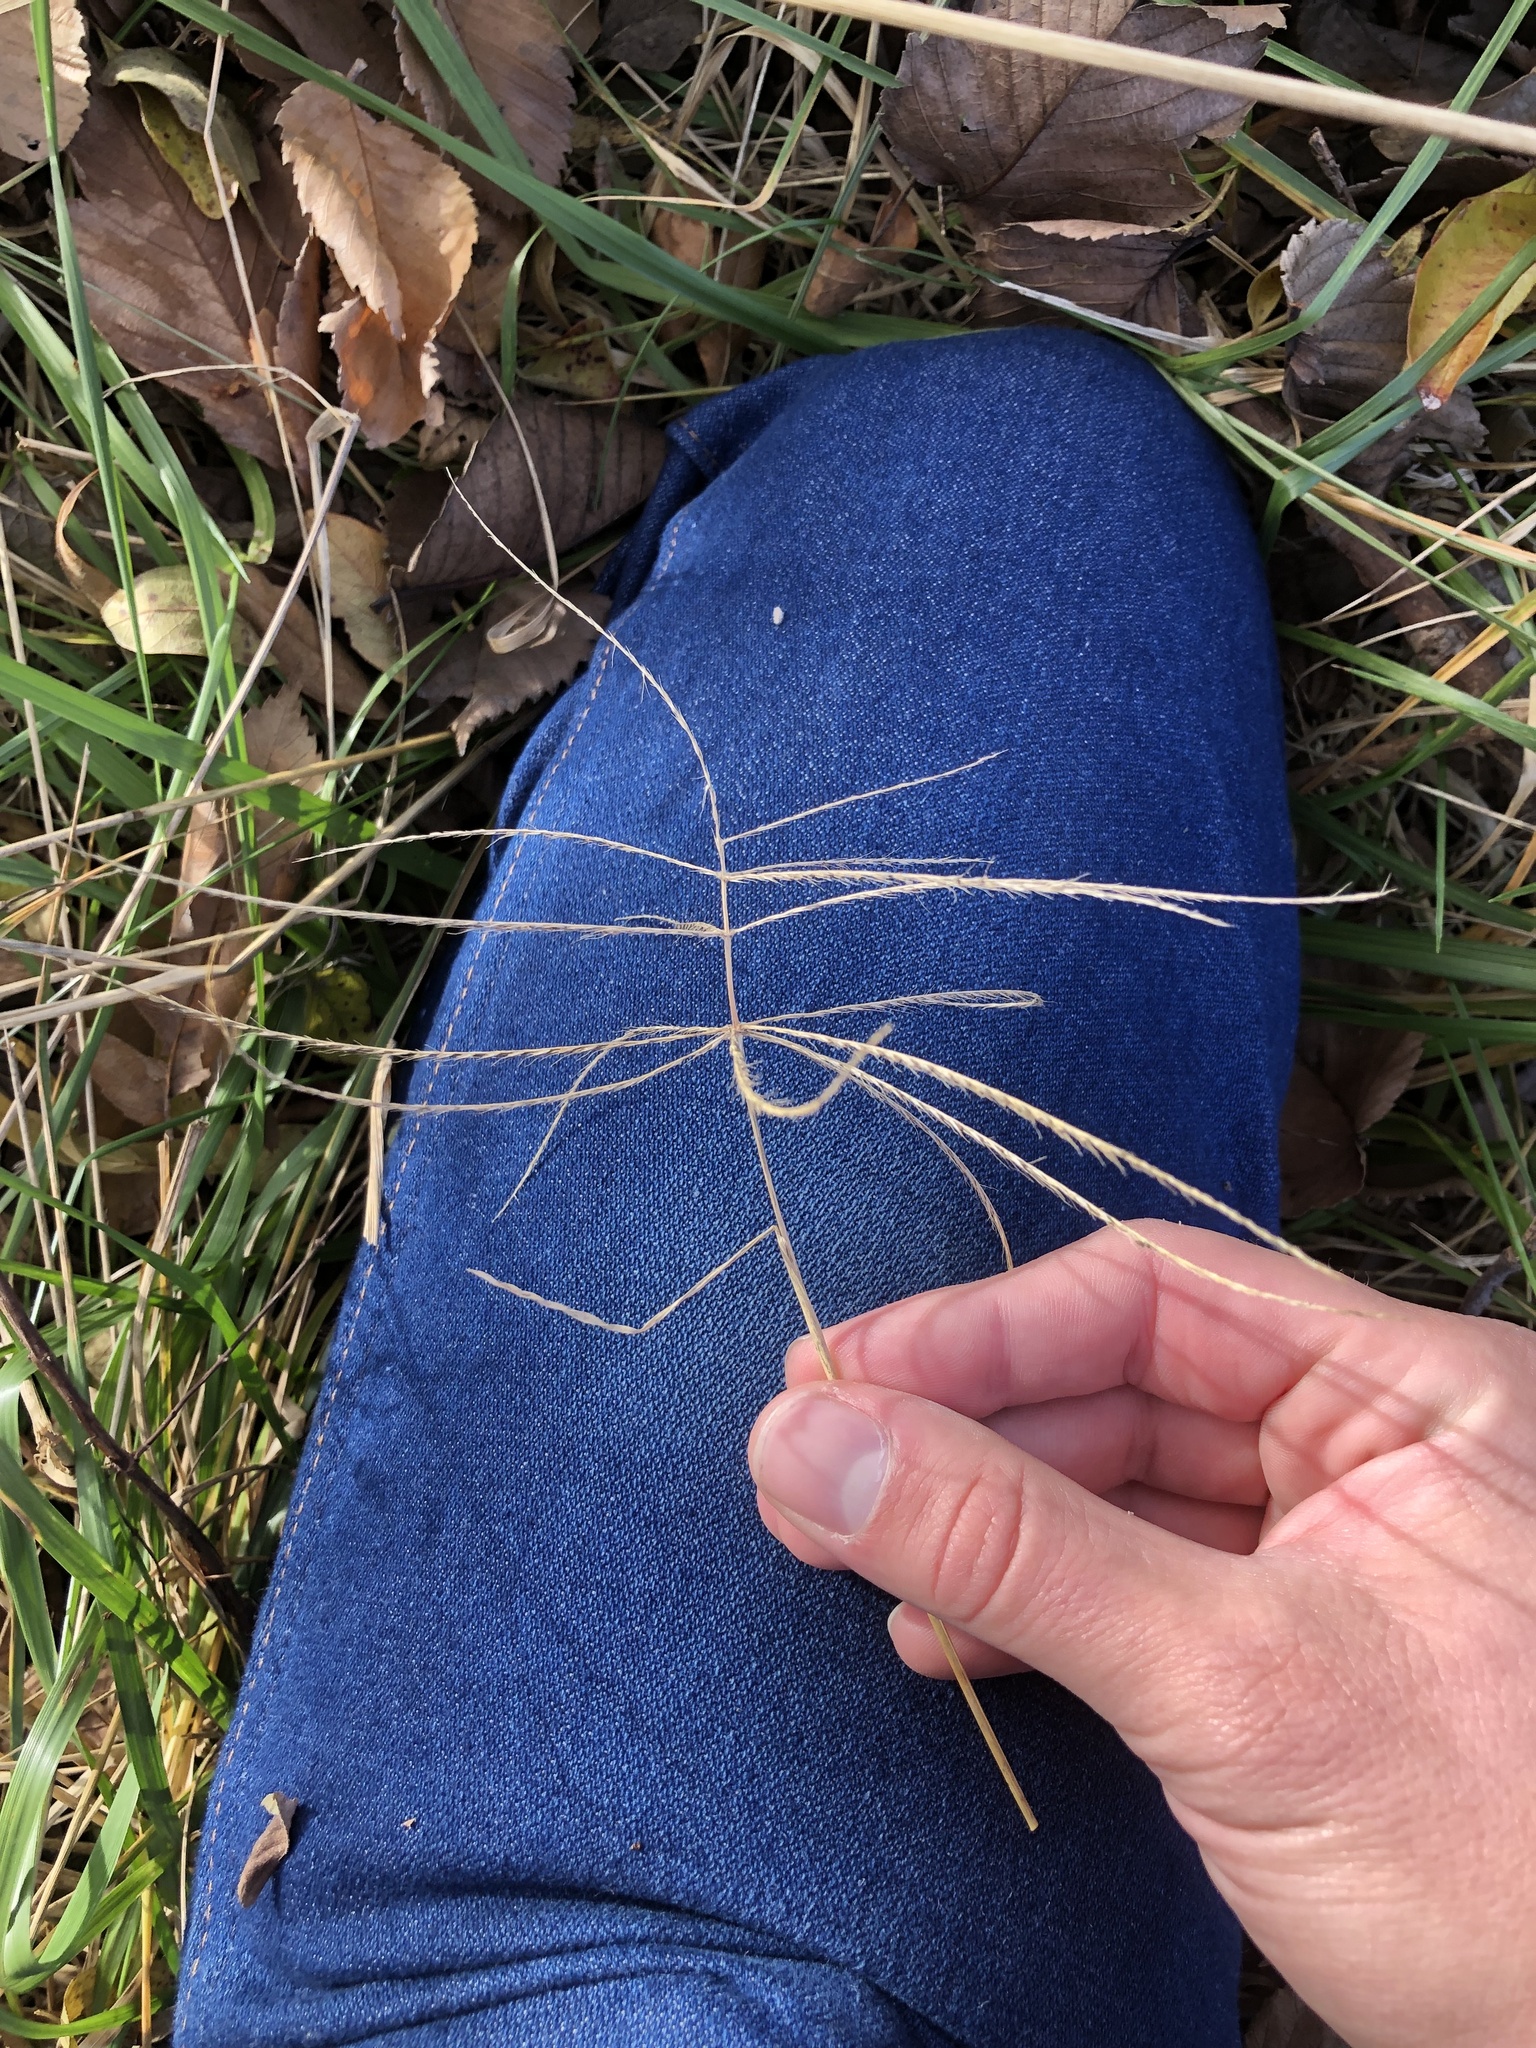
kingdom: Plantae
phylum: Tracheophyta
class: Liliopsida
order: Poales
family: Poaceae
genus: Chloris
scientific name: Chloris verticillata
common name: Tumble windmill grass
